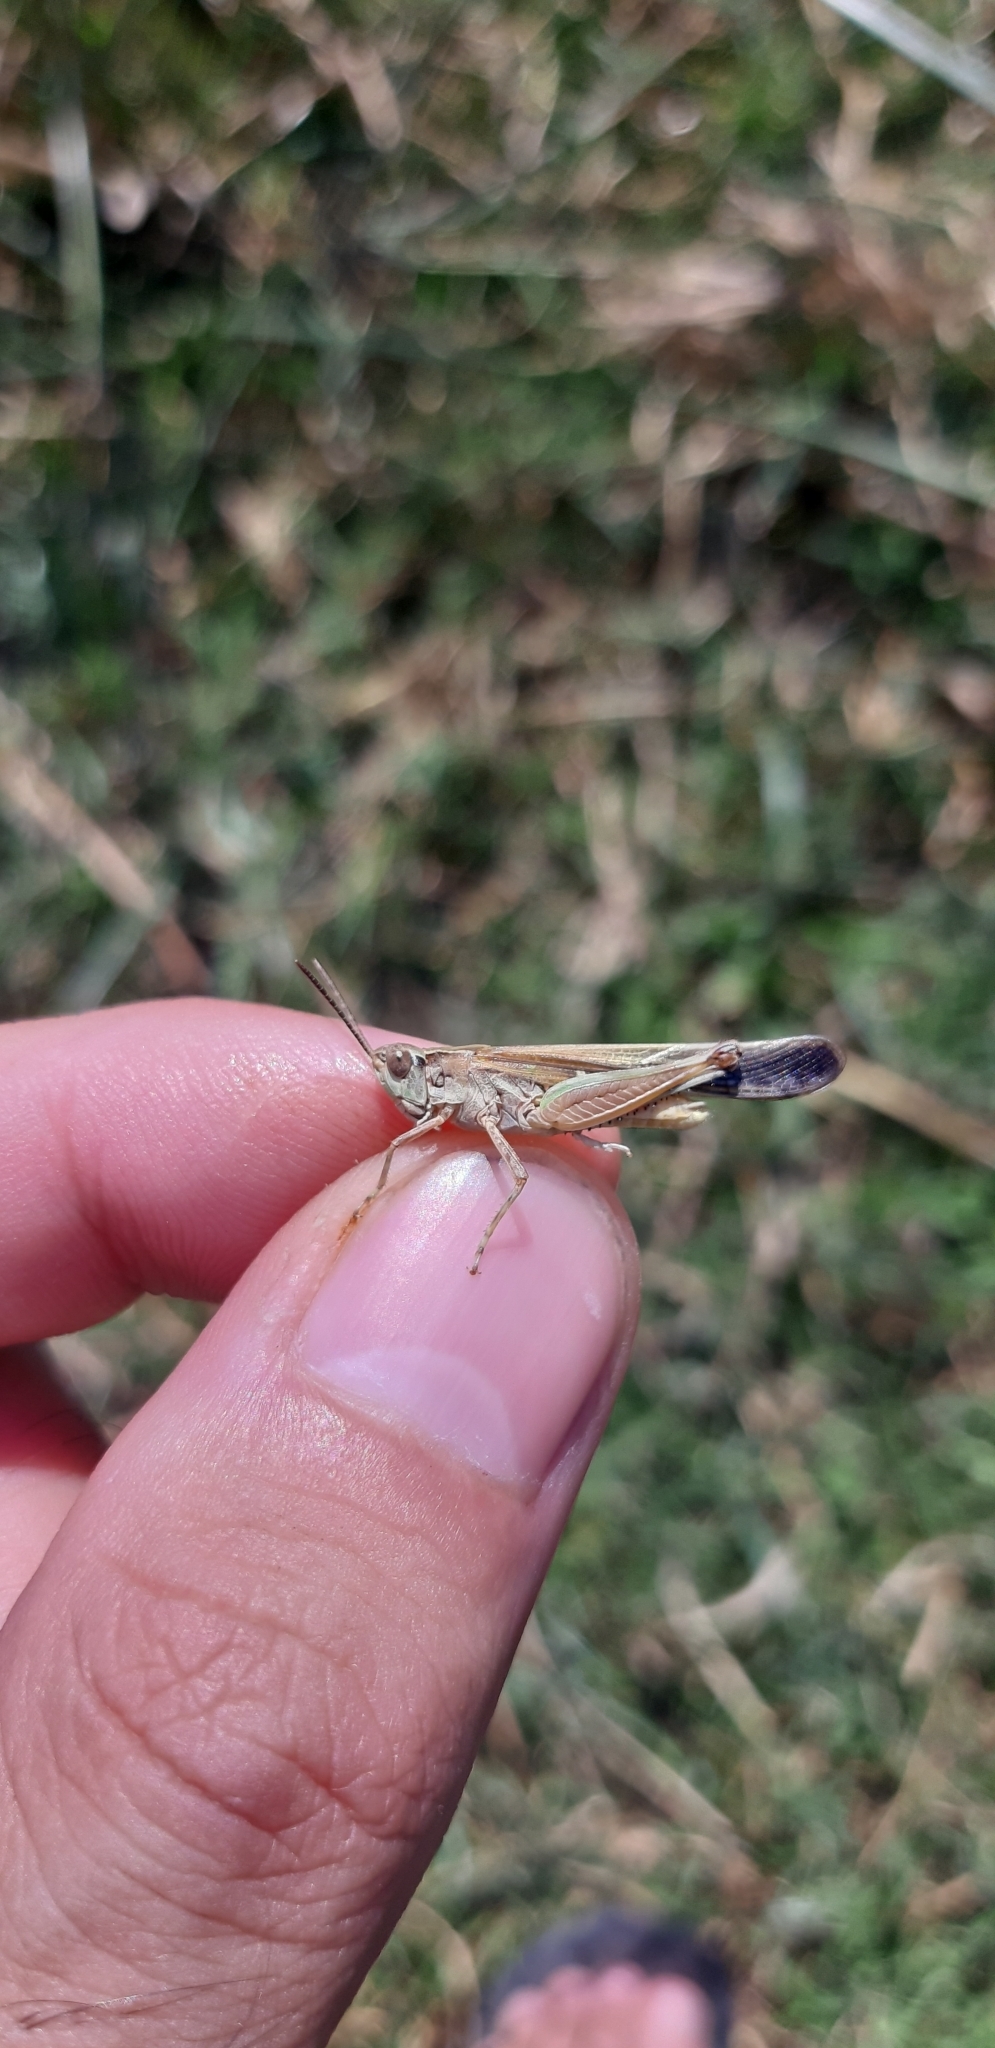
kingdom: Animalia
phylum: Arthropoda
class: Insecta
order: Orthoptera
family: Acrididae
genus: Aiolopus
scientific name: Aiolopus puissanti
